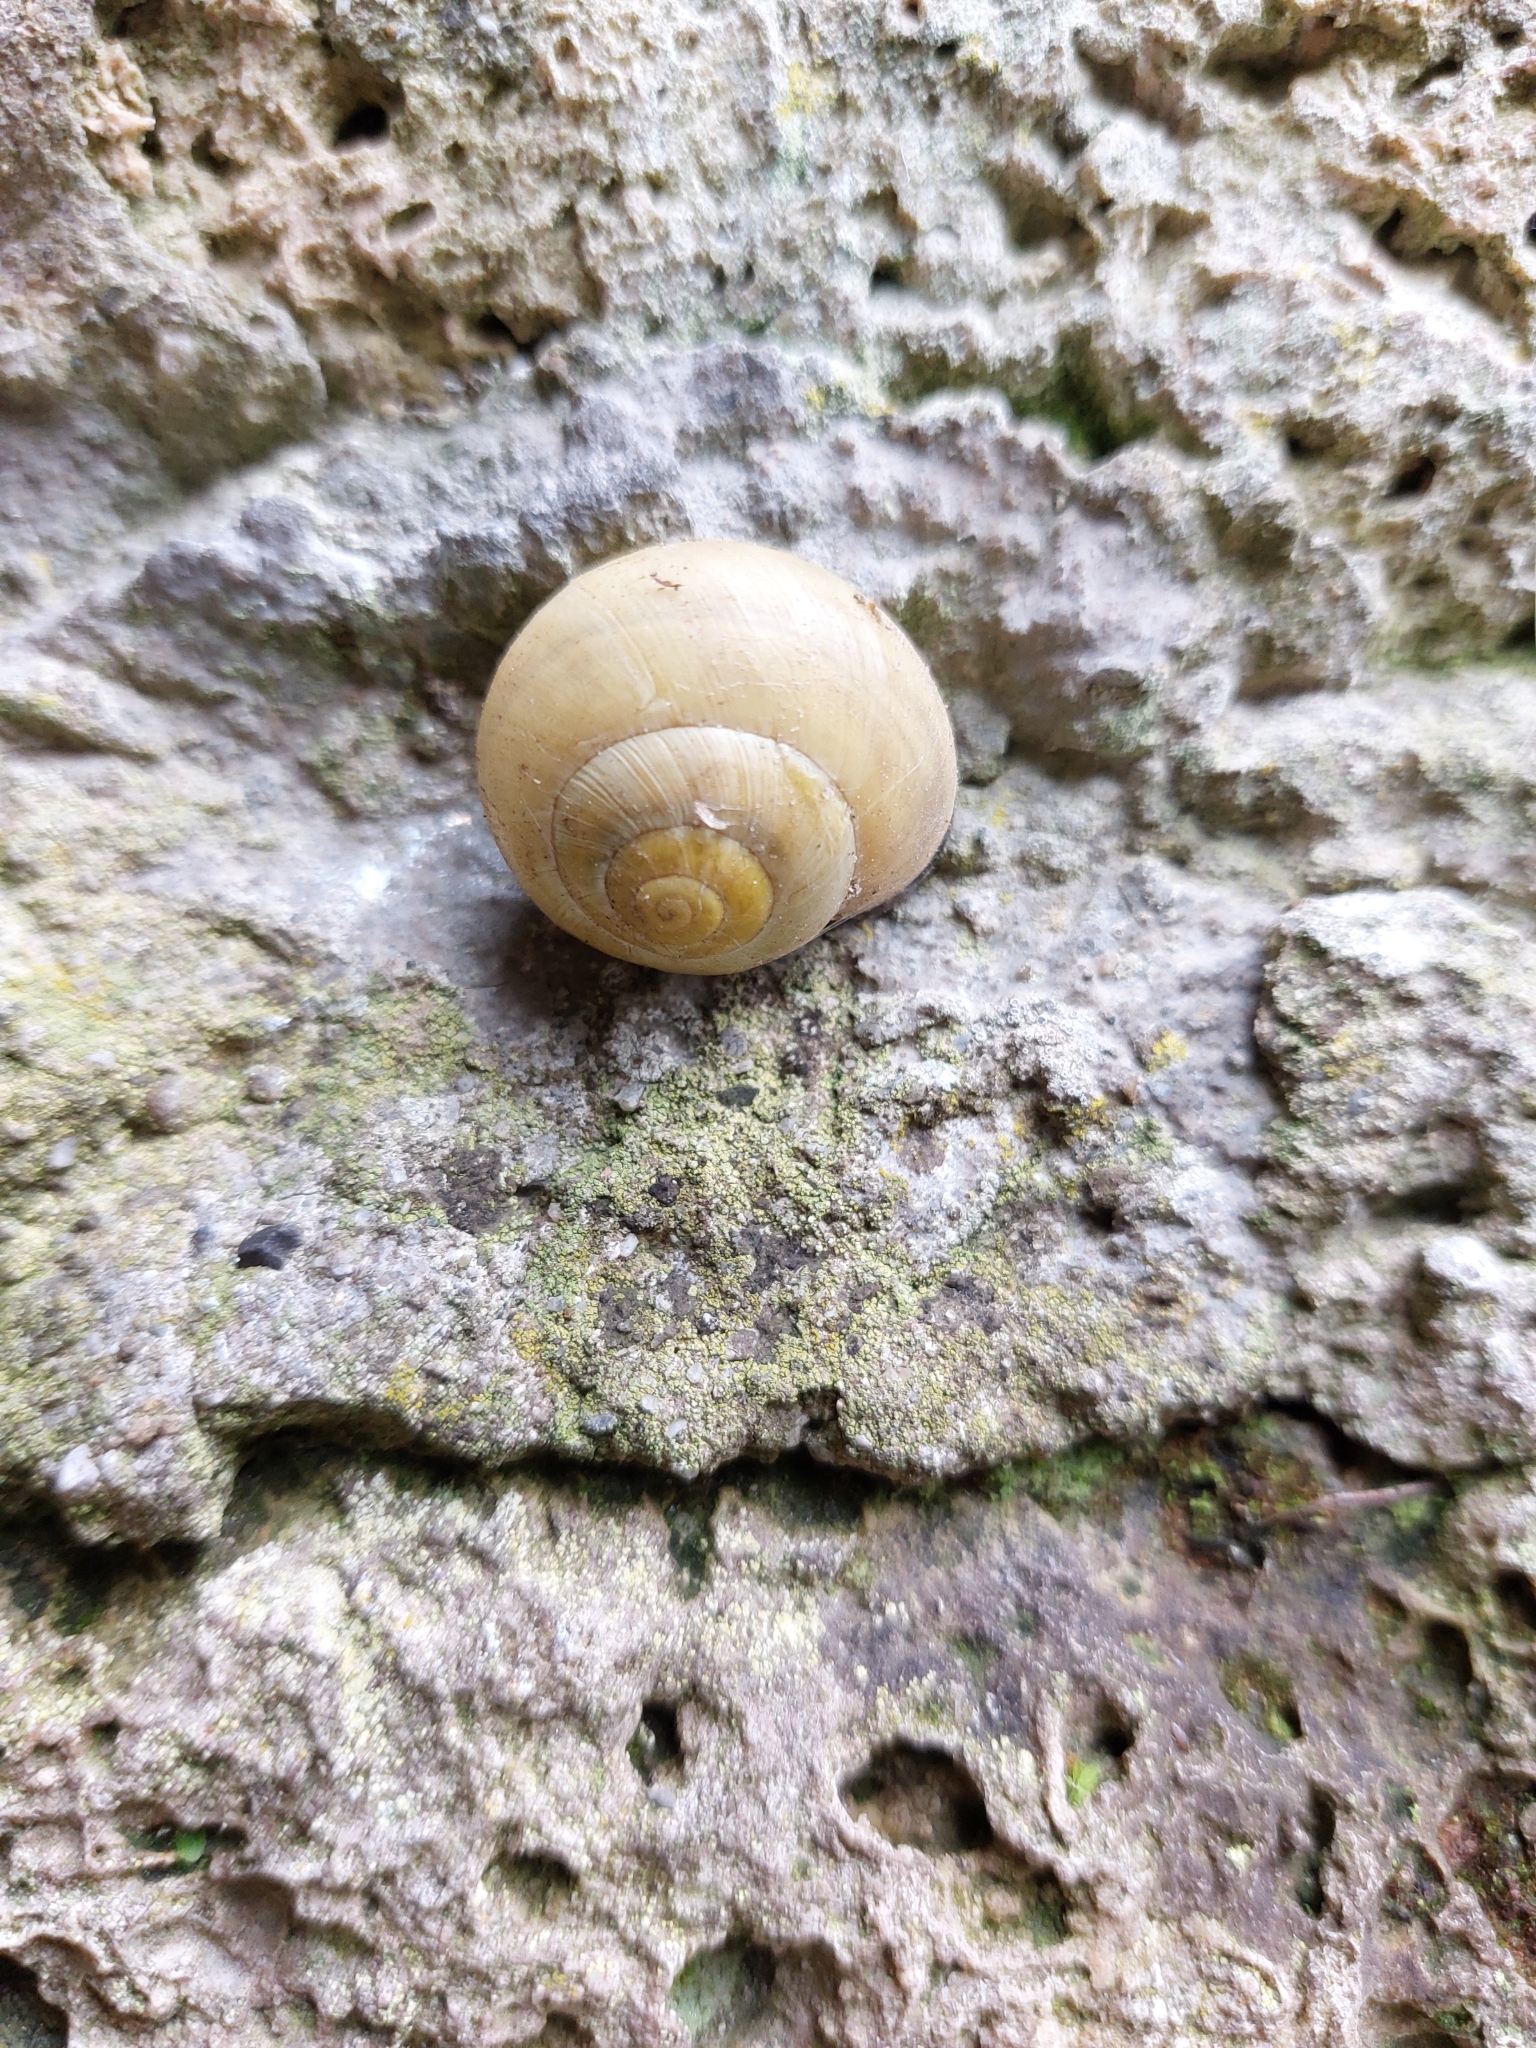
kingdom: Animalia
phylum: Mollusca
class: Gastropoda
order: Stylommatophora
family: Helicidae
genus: Cepaea
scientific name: Cepaea nemoralis
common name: Grovesnail
